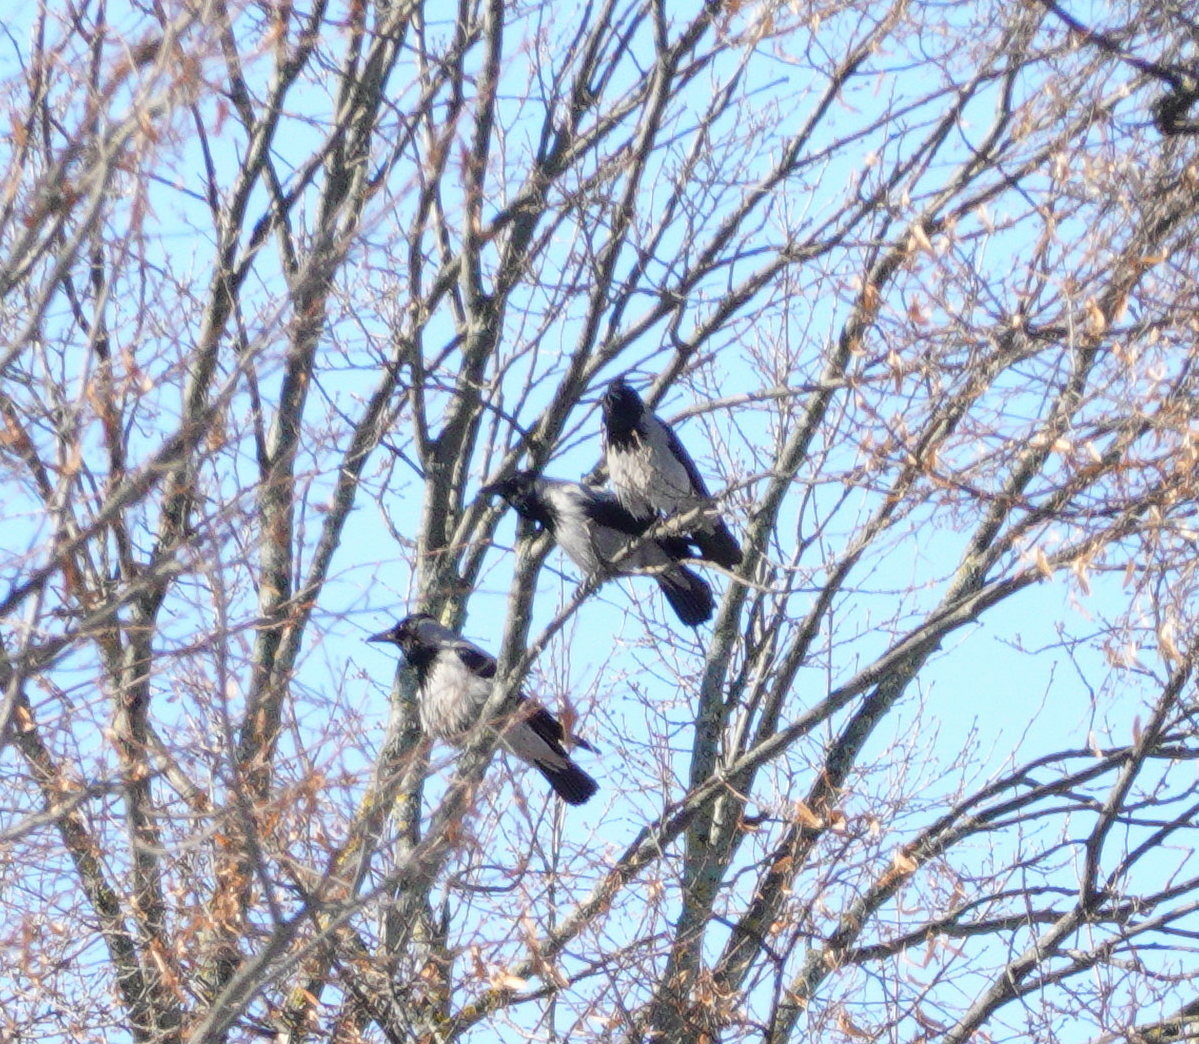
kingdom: Animalia
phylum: Chordata
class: Aves
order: Passeriformes
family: Corvidae
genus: Corvus
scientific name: Corvus cornix
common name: Hooded crow
